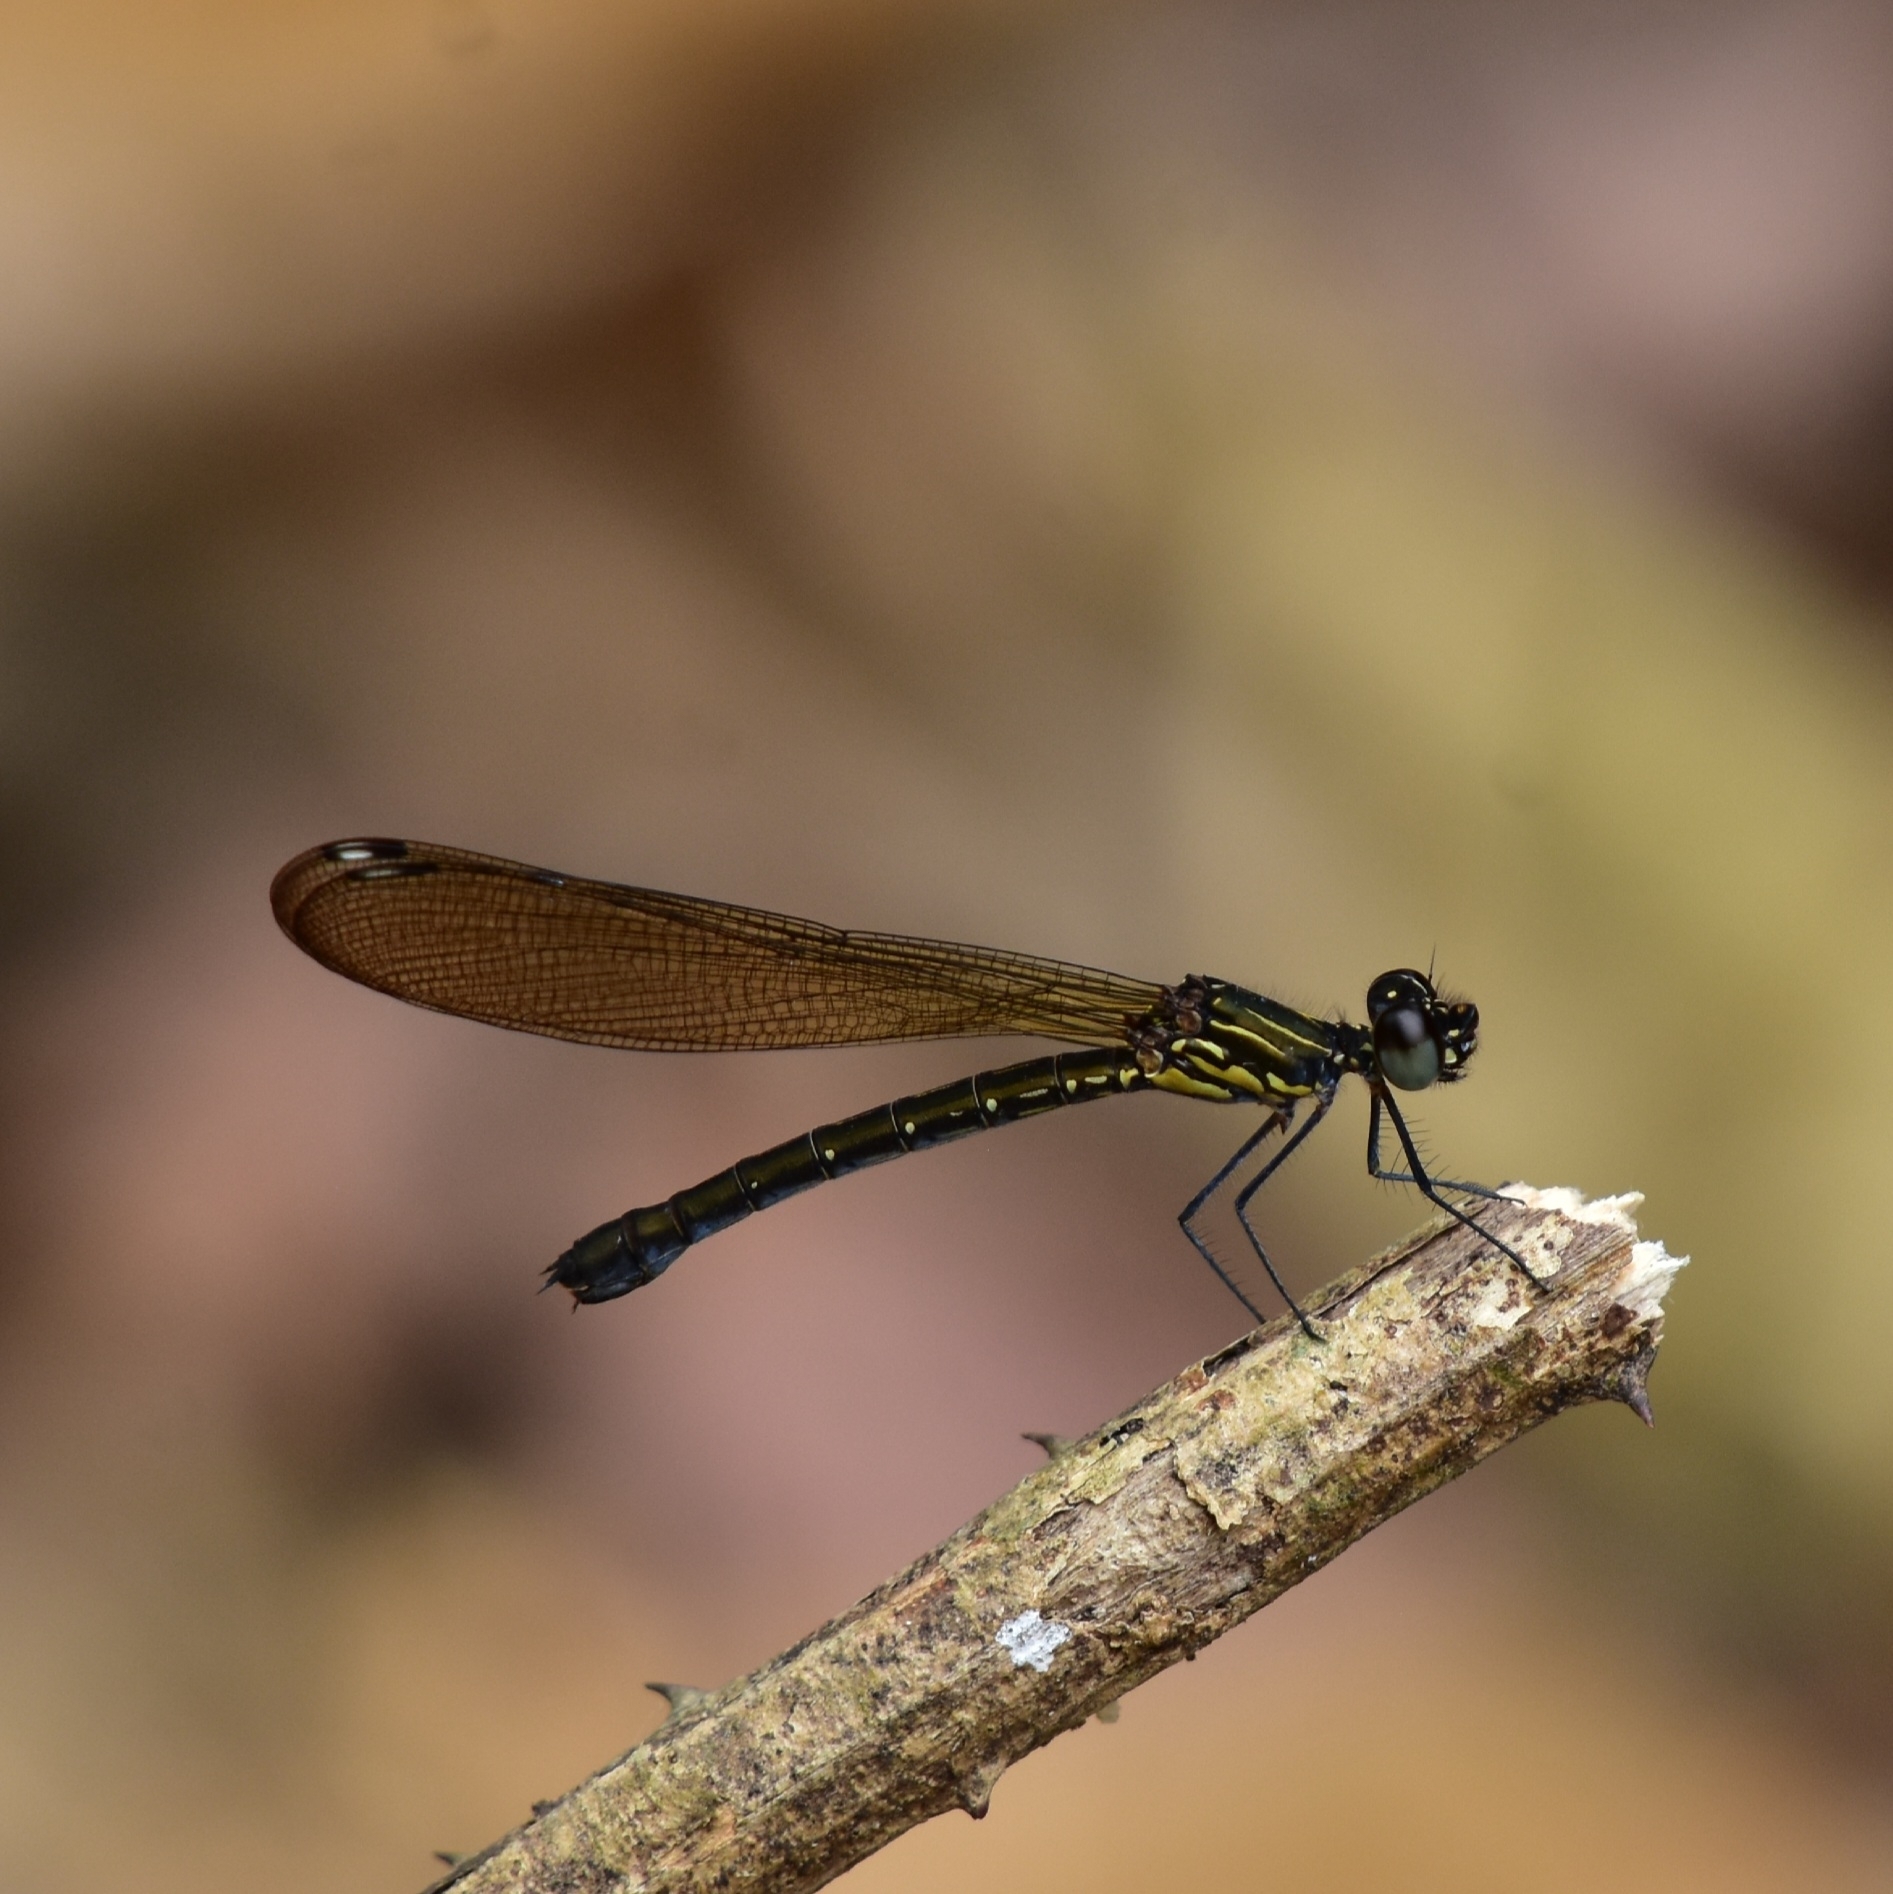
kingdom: Animalia
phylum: Arthropoda
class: Insecta
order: Odonata
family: Chlorocyphidae
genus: Heliocypha
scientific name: Heliocypha bisignata
